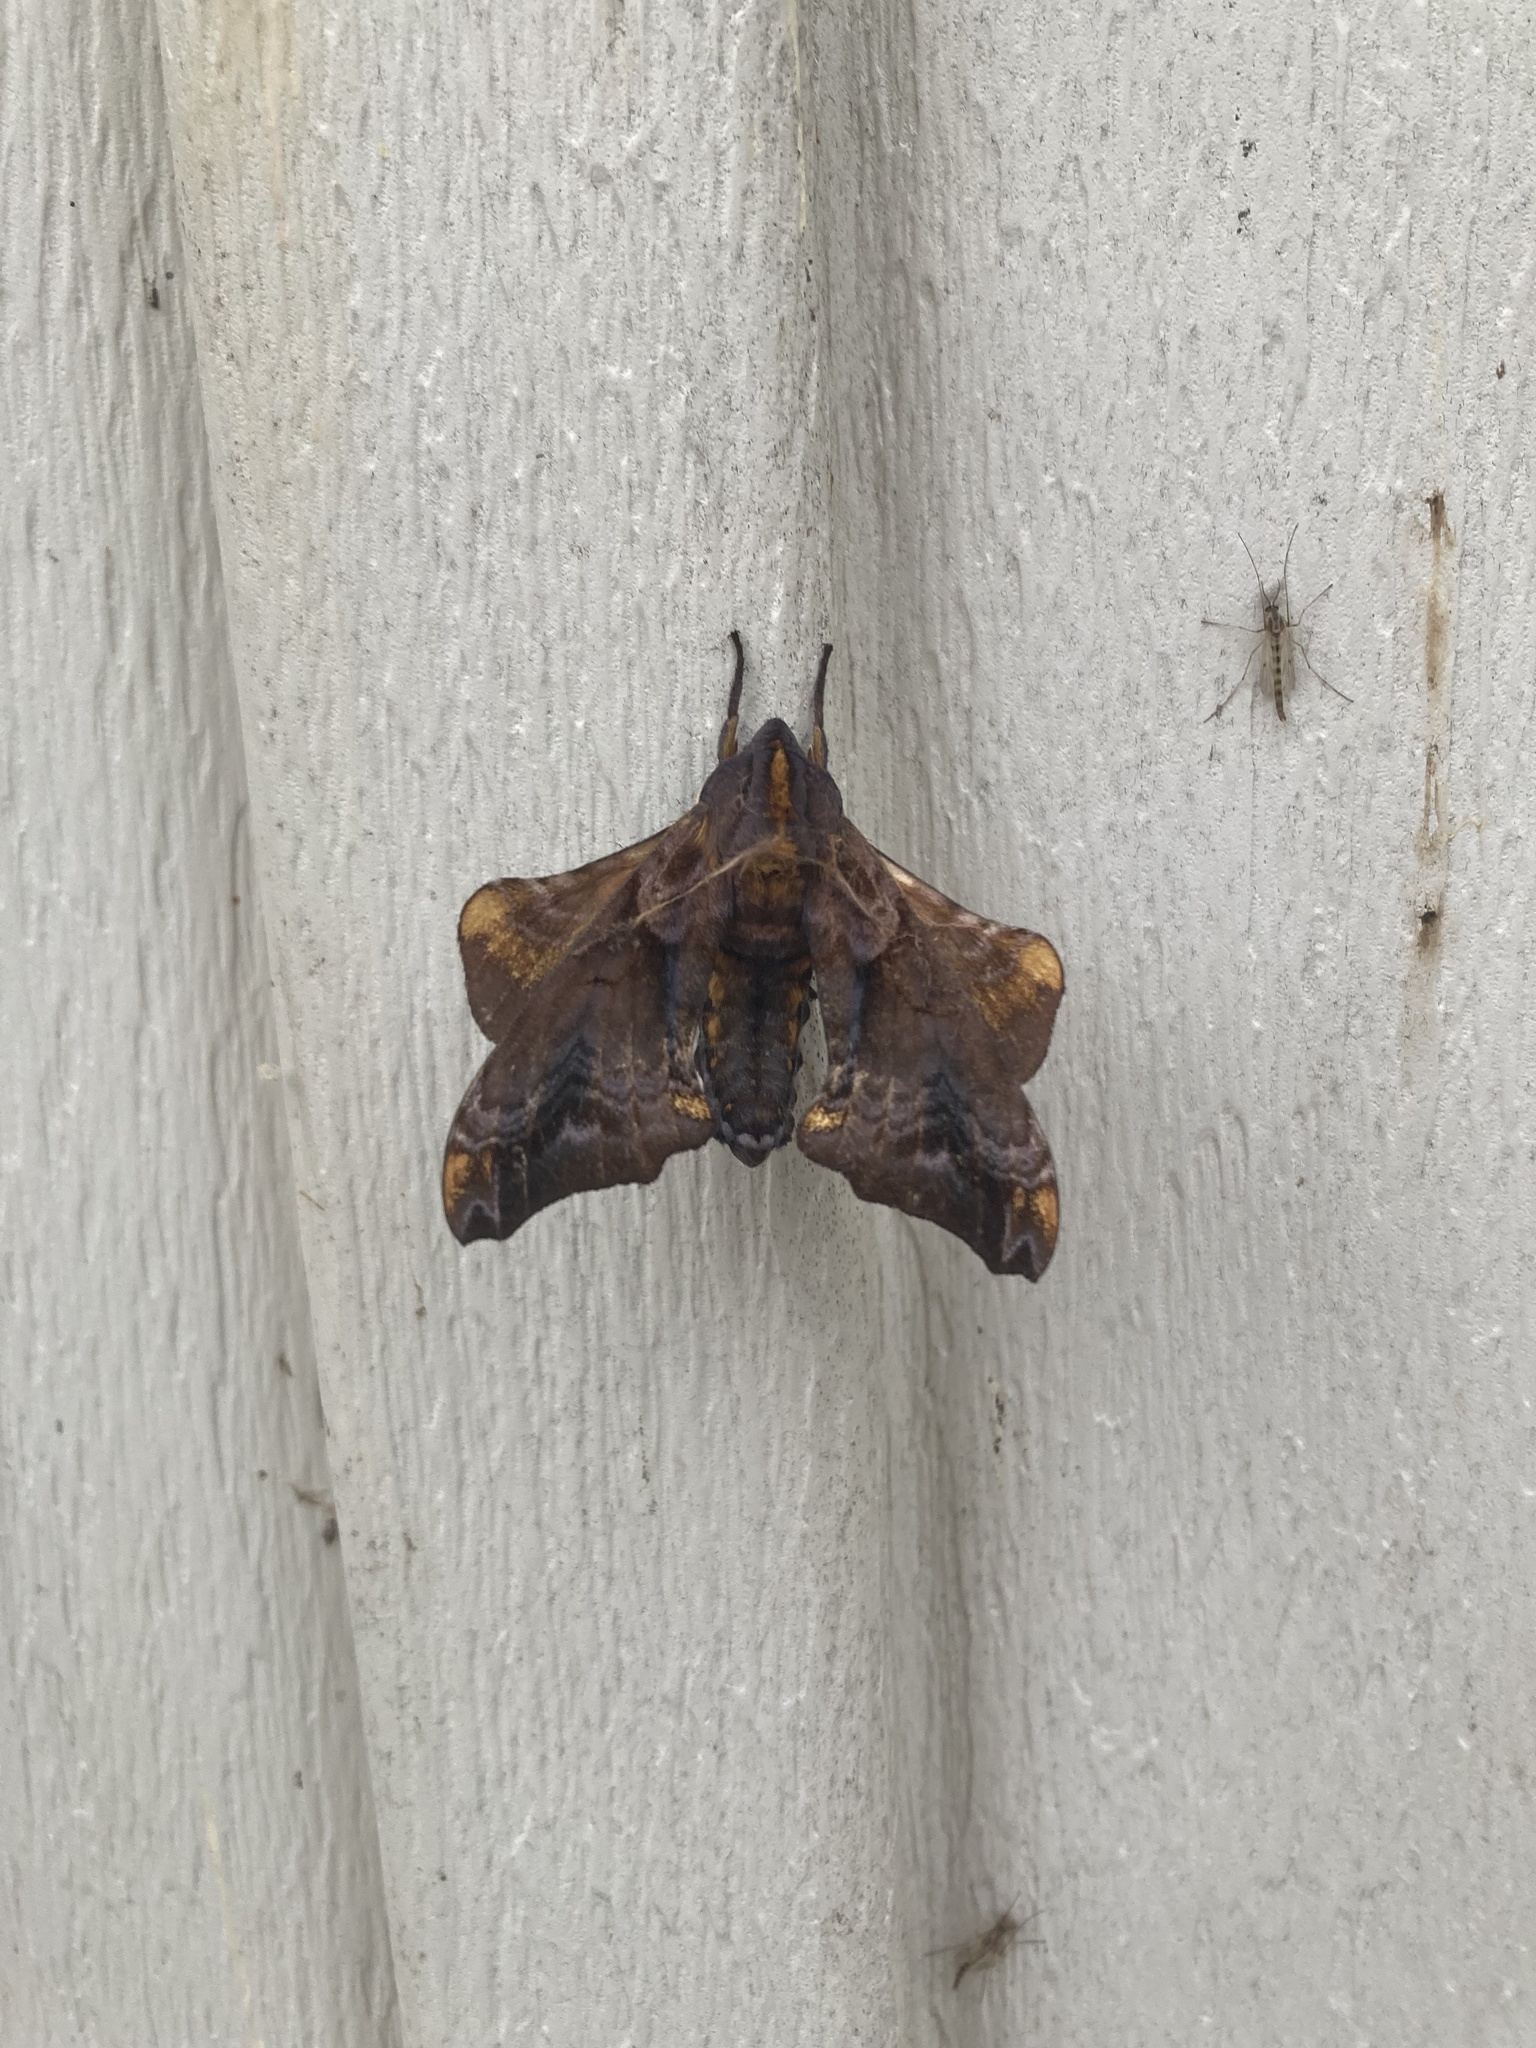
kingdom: Animalia
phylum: Arthropoda
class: Insecta
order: Lepidoptera
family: Sphingidae
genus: Paonias
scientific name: Paonias myops
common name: Small-eyed sphinx
